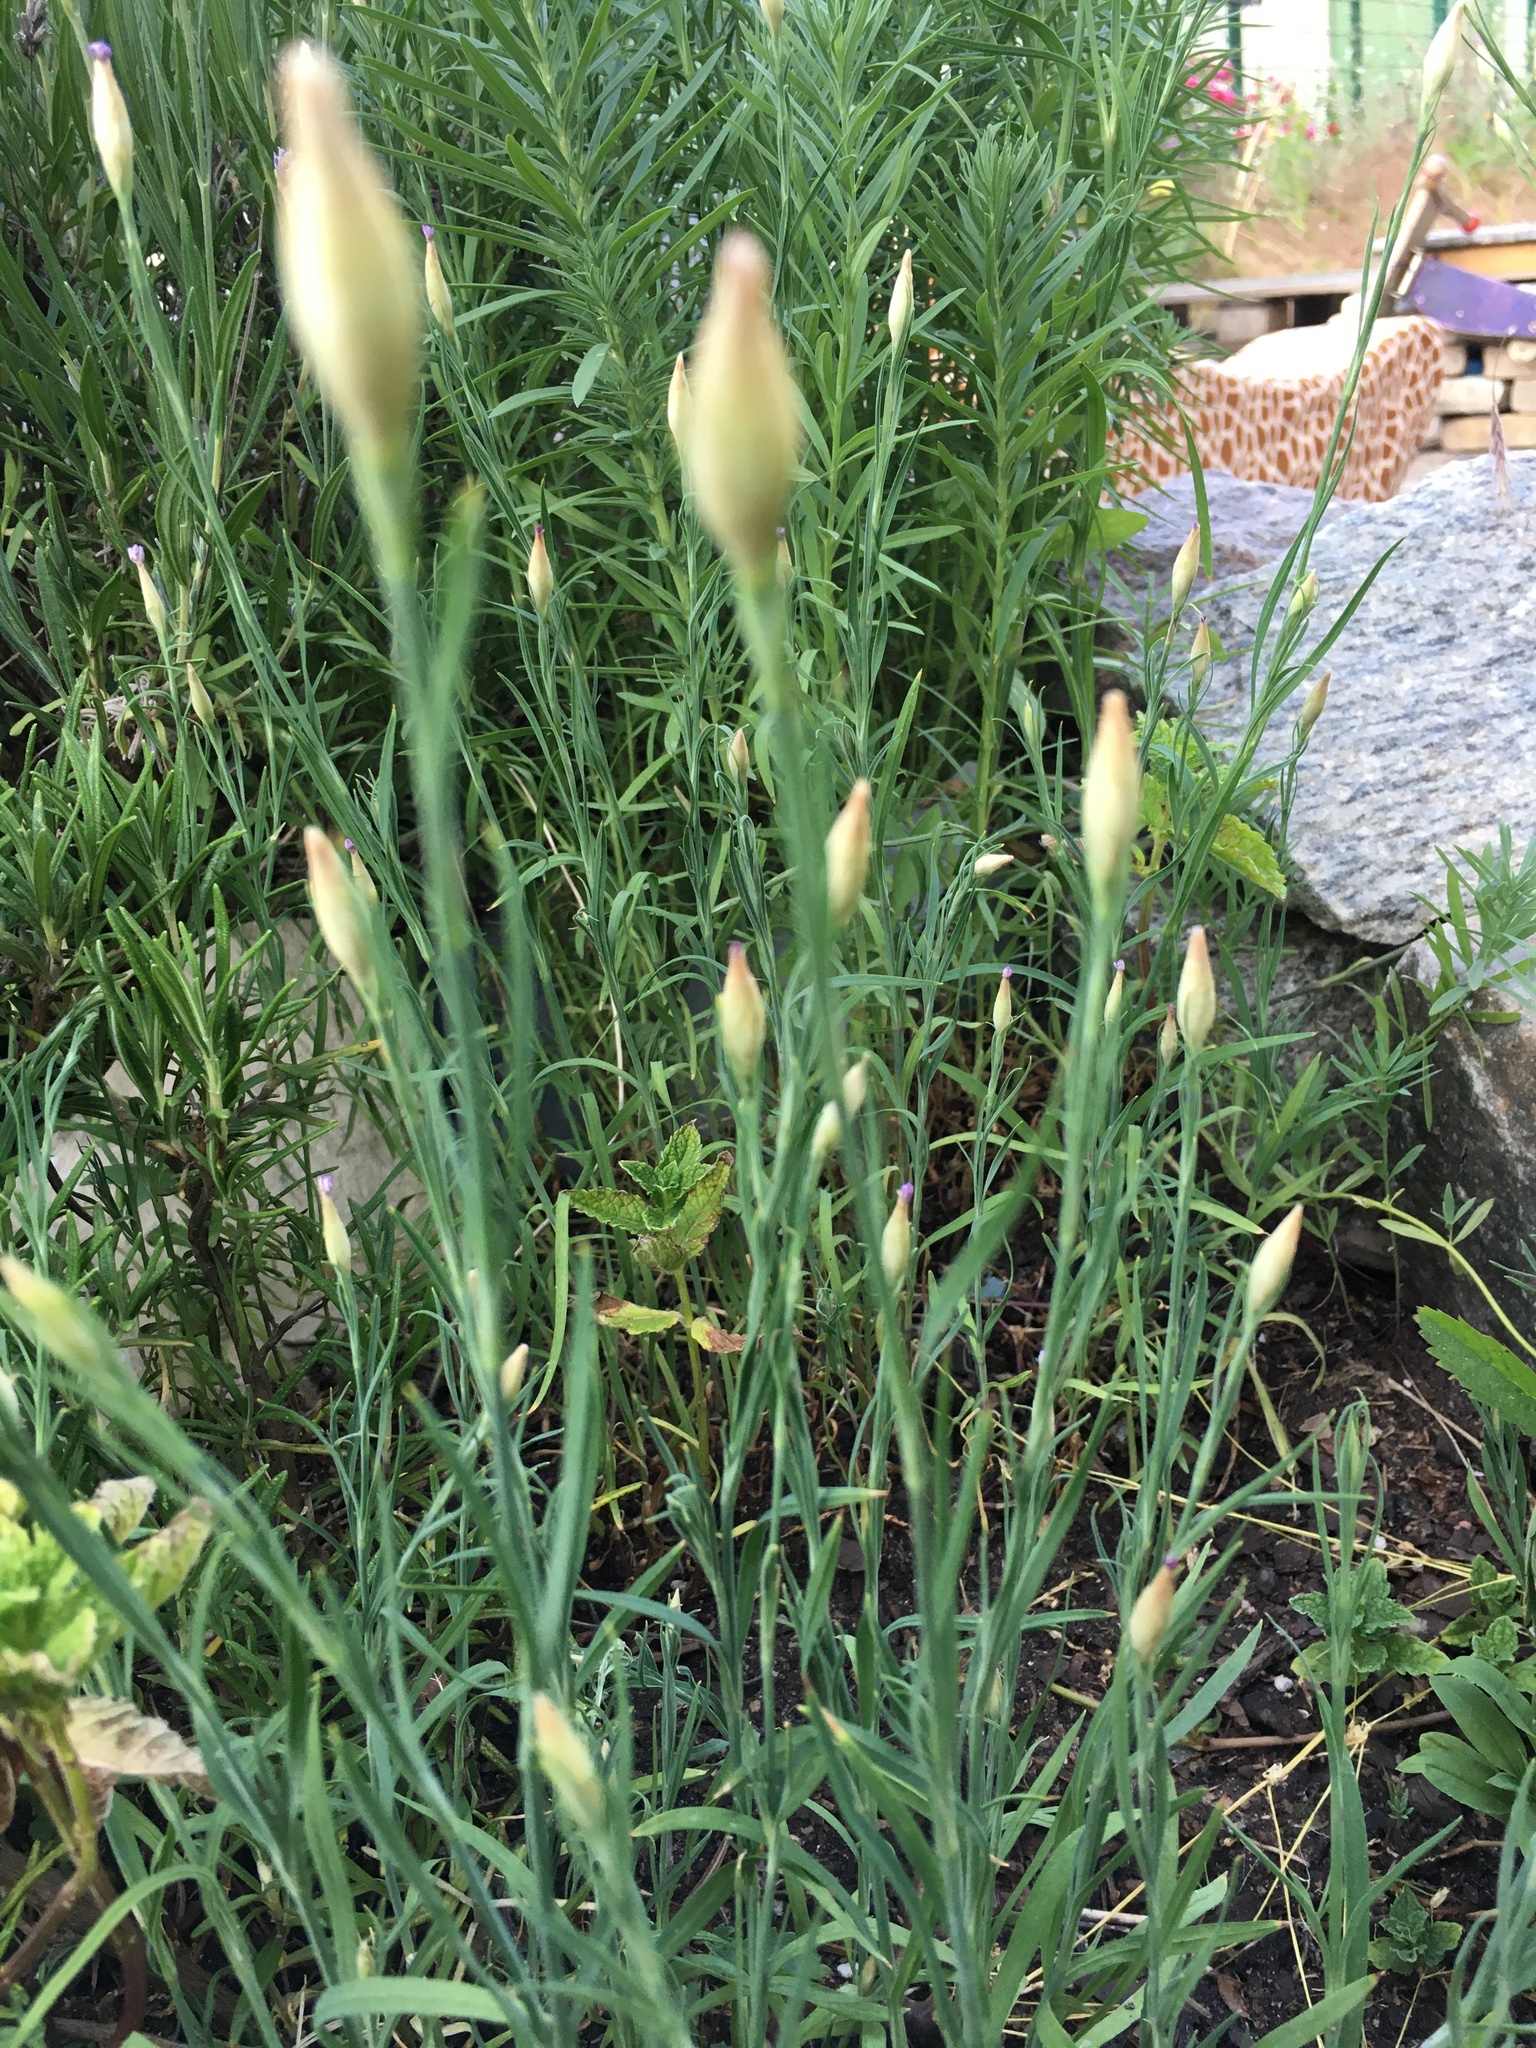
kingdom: Plantae
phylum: Tracheophyta
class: Magnoliopsida
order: Caryophyllales
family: Caryophyllaceae
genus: Petrorhagia
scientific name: Petrorhagia prolifera
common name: Proliferous pink
